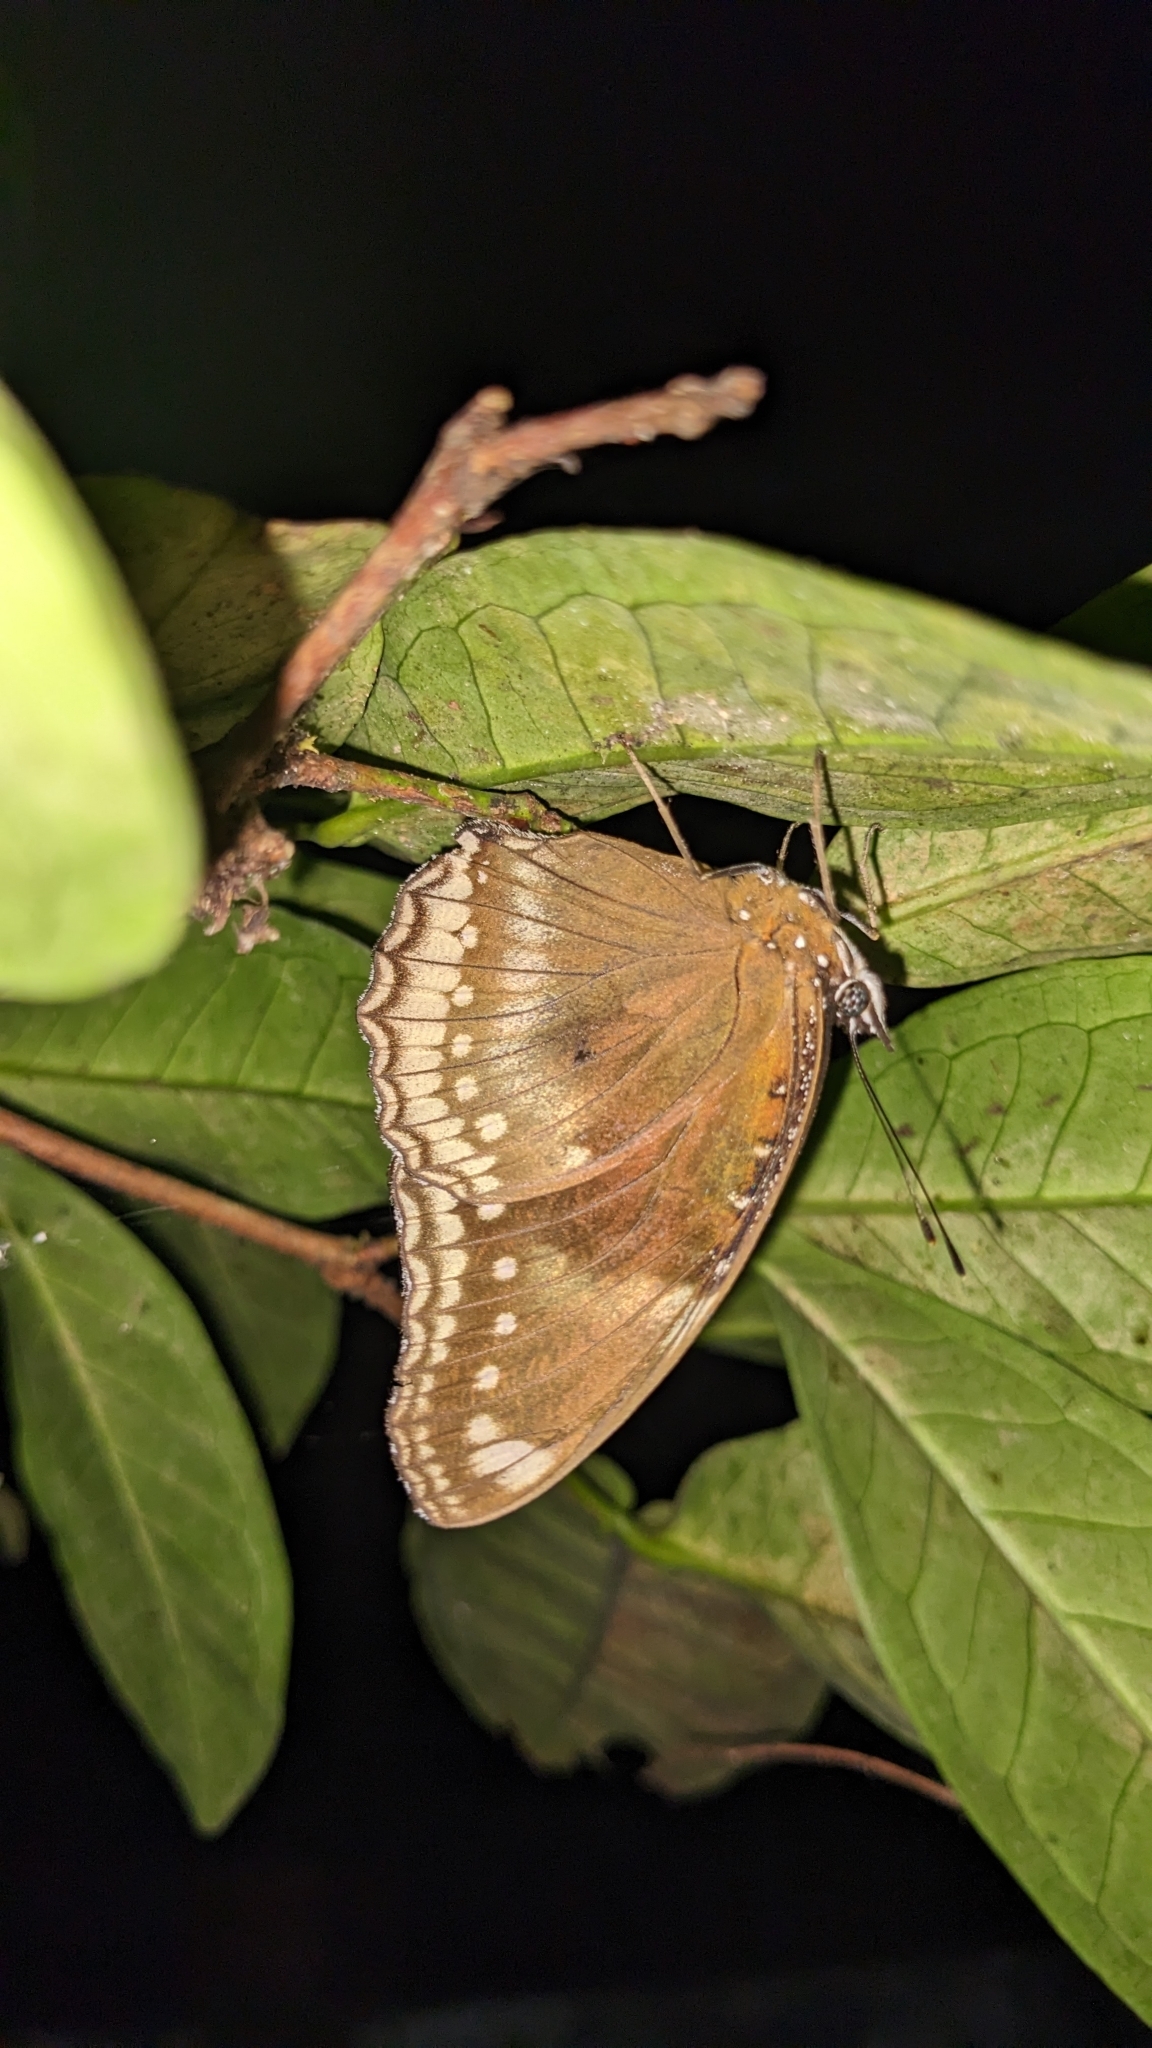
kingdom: Animalia
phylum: Arthropoda
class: Insecta
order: Lepidoptera
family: Nymphalidae
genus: Hypolimnas
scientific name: Hypolimnas bolina
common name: Great eggfly
